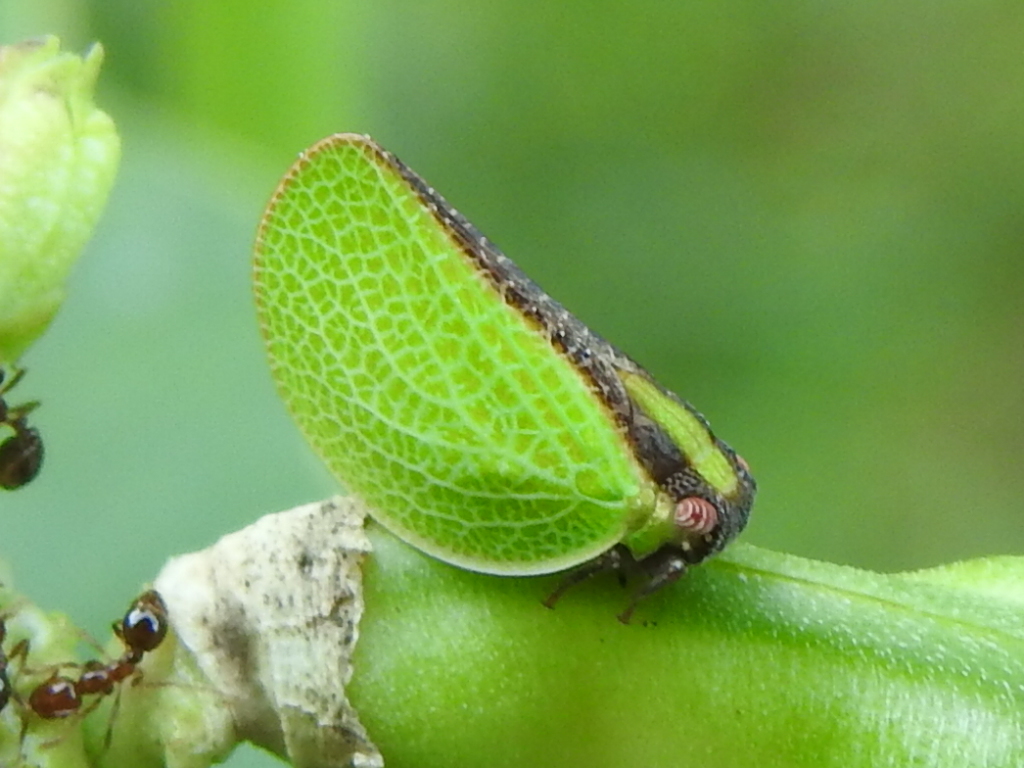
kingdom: Animalia
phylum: Arthropoda
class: Insecta
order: Hemiptera
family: Acanaloniidae
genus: Acanalonia
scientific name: Acanalonia bivittata
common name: Two-striped planthopper
